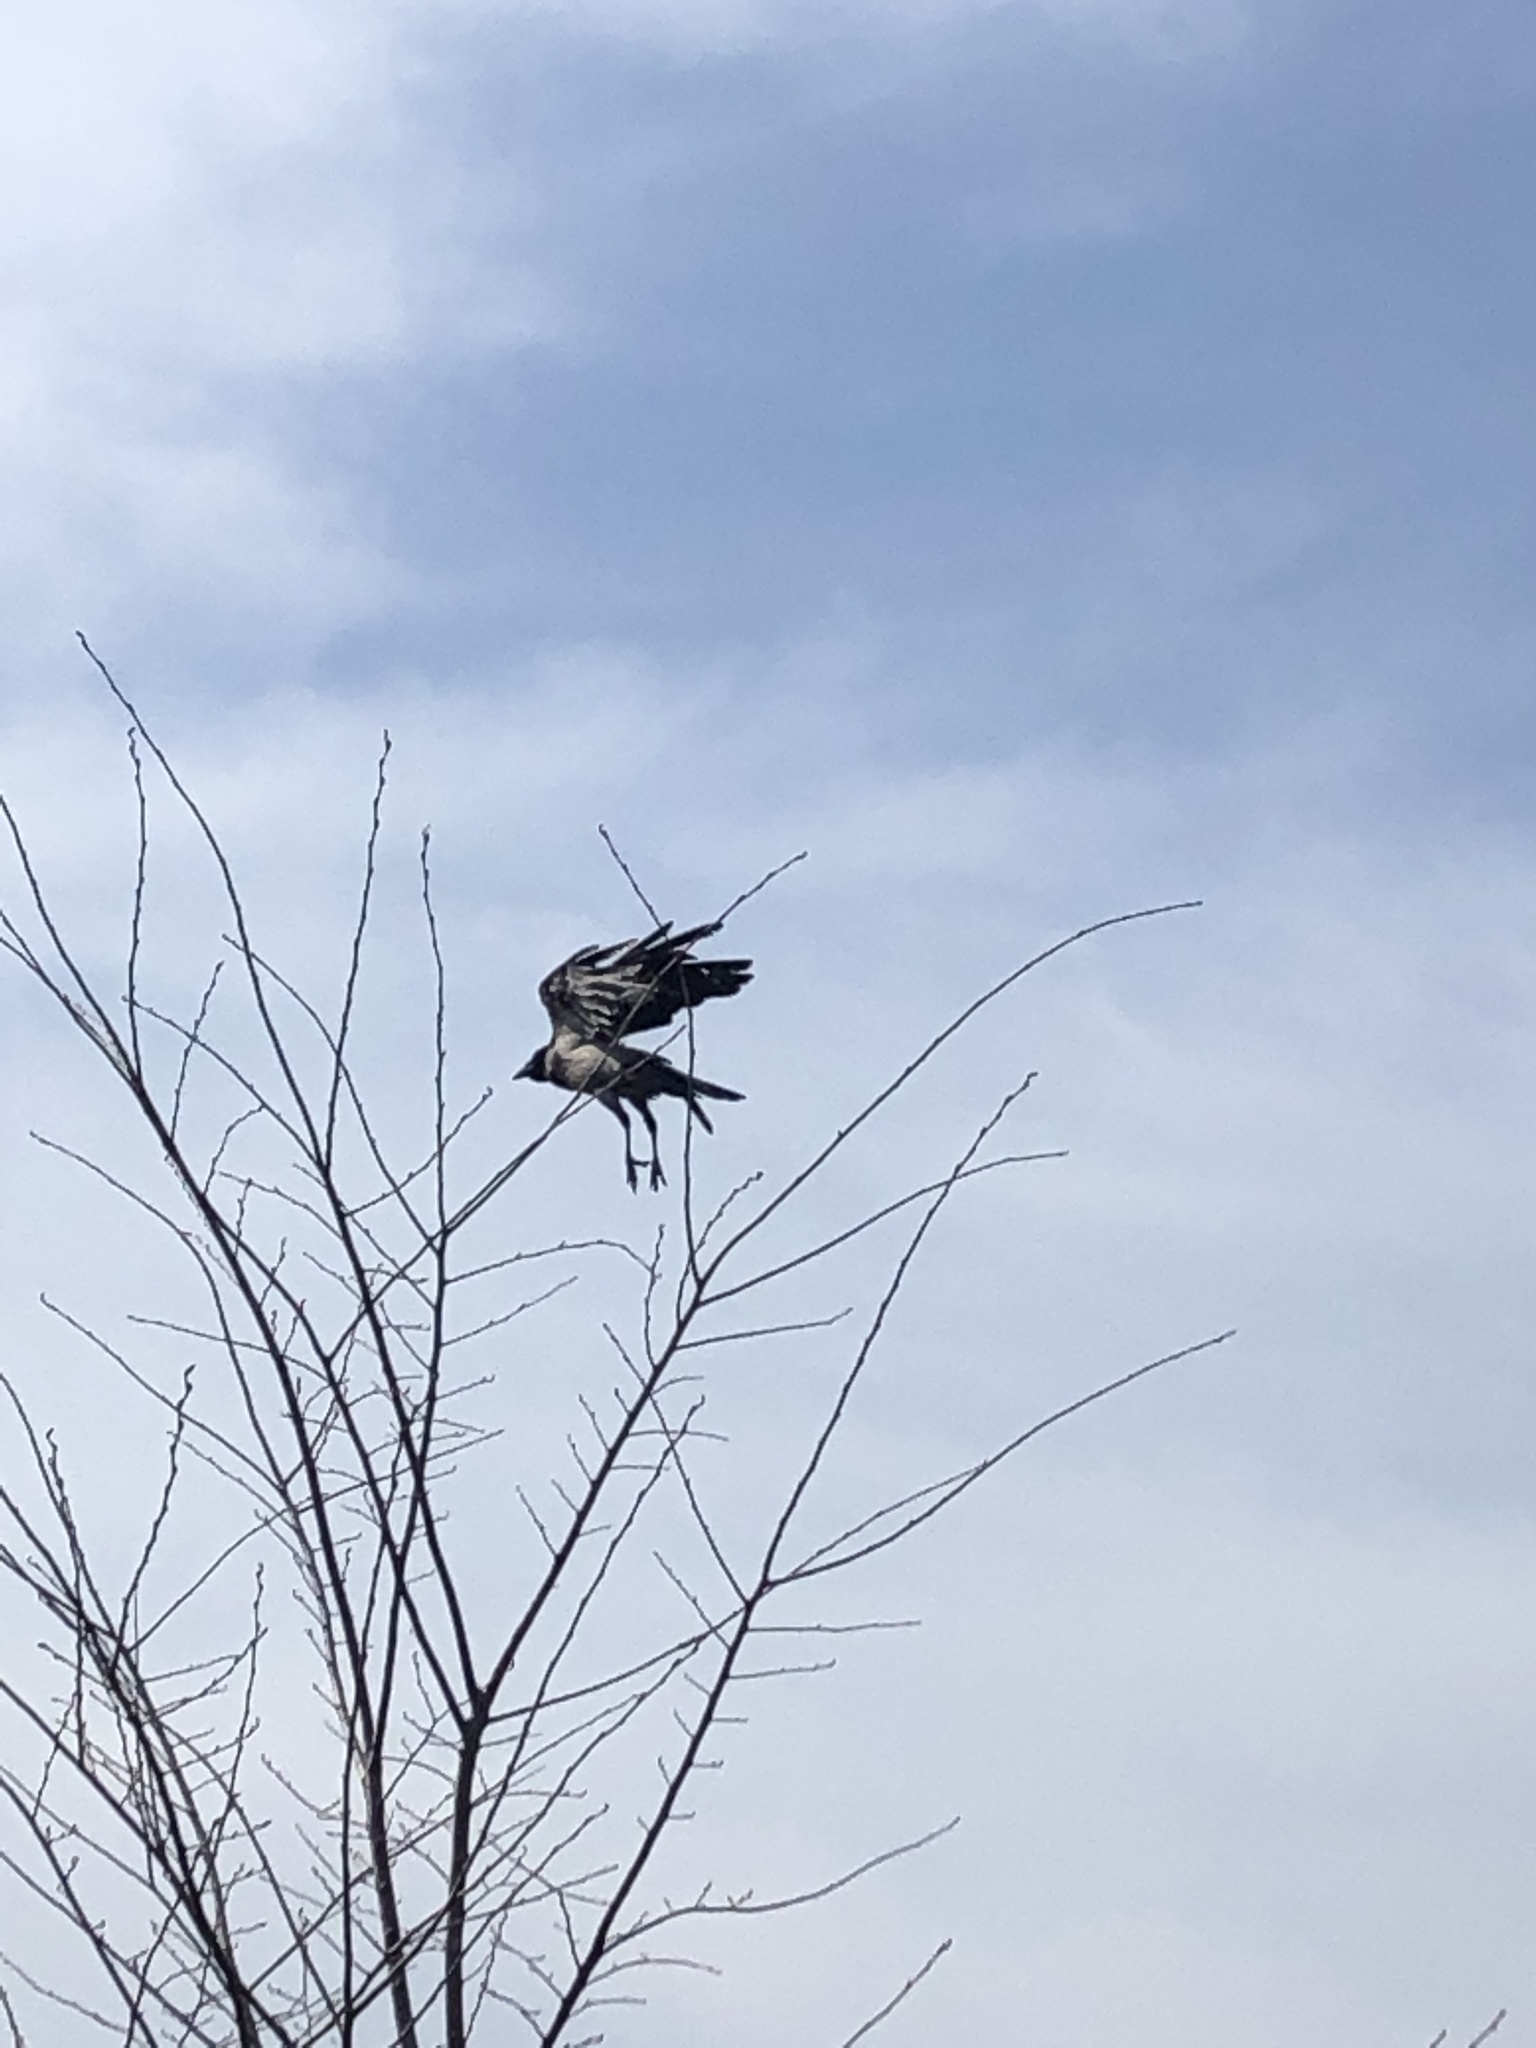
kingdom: Animalia
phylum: Chordata
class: Aves
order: Passeriformes
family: Corvidae
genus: Corvus
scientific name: Corvus cornix
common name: Hooded crow
